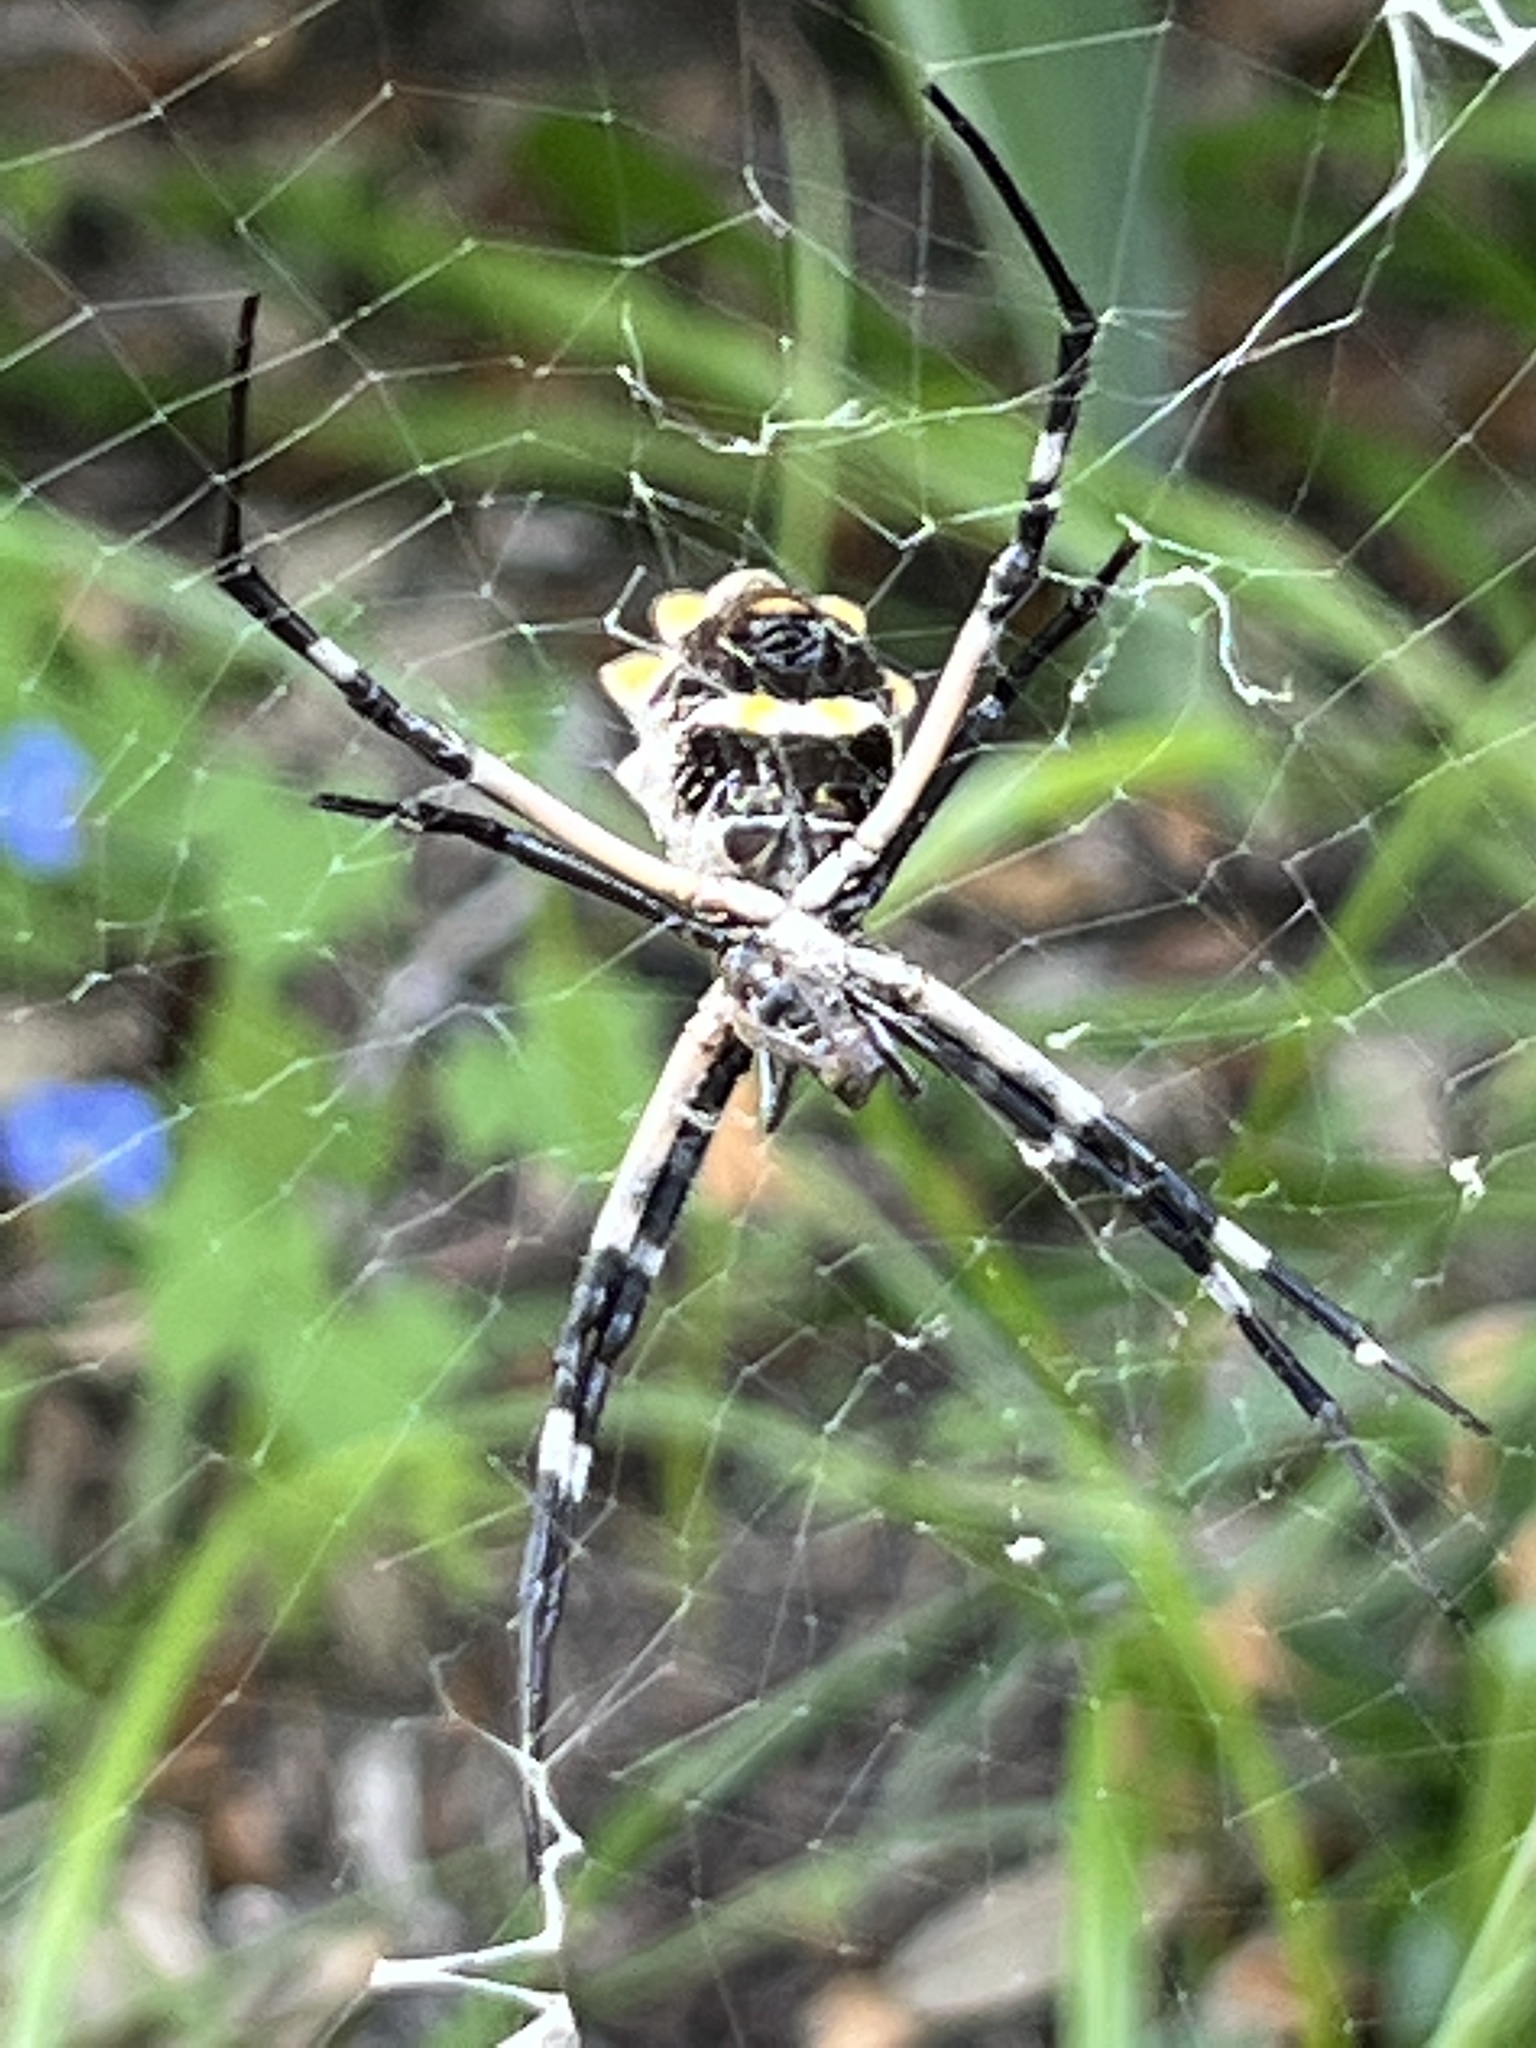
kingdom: Animalia
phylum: Arthropoda
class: Arachnida
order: Araneae
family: Araneidae
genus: Argiope
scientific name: Argiope argentata
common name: Orb weavers
